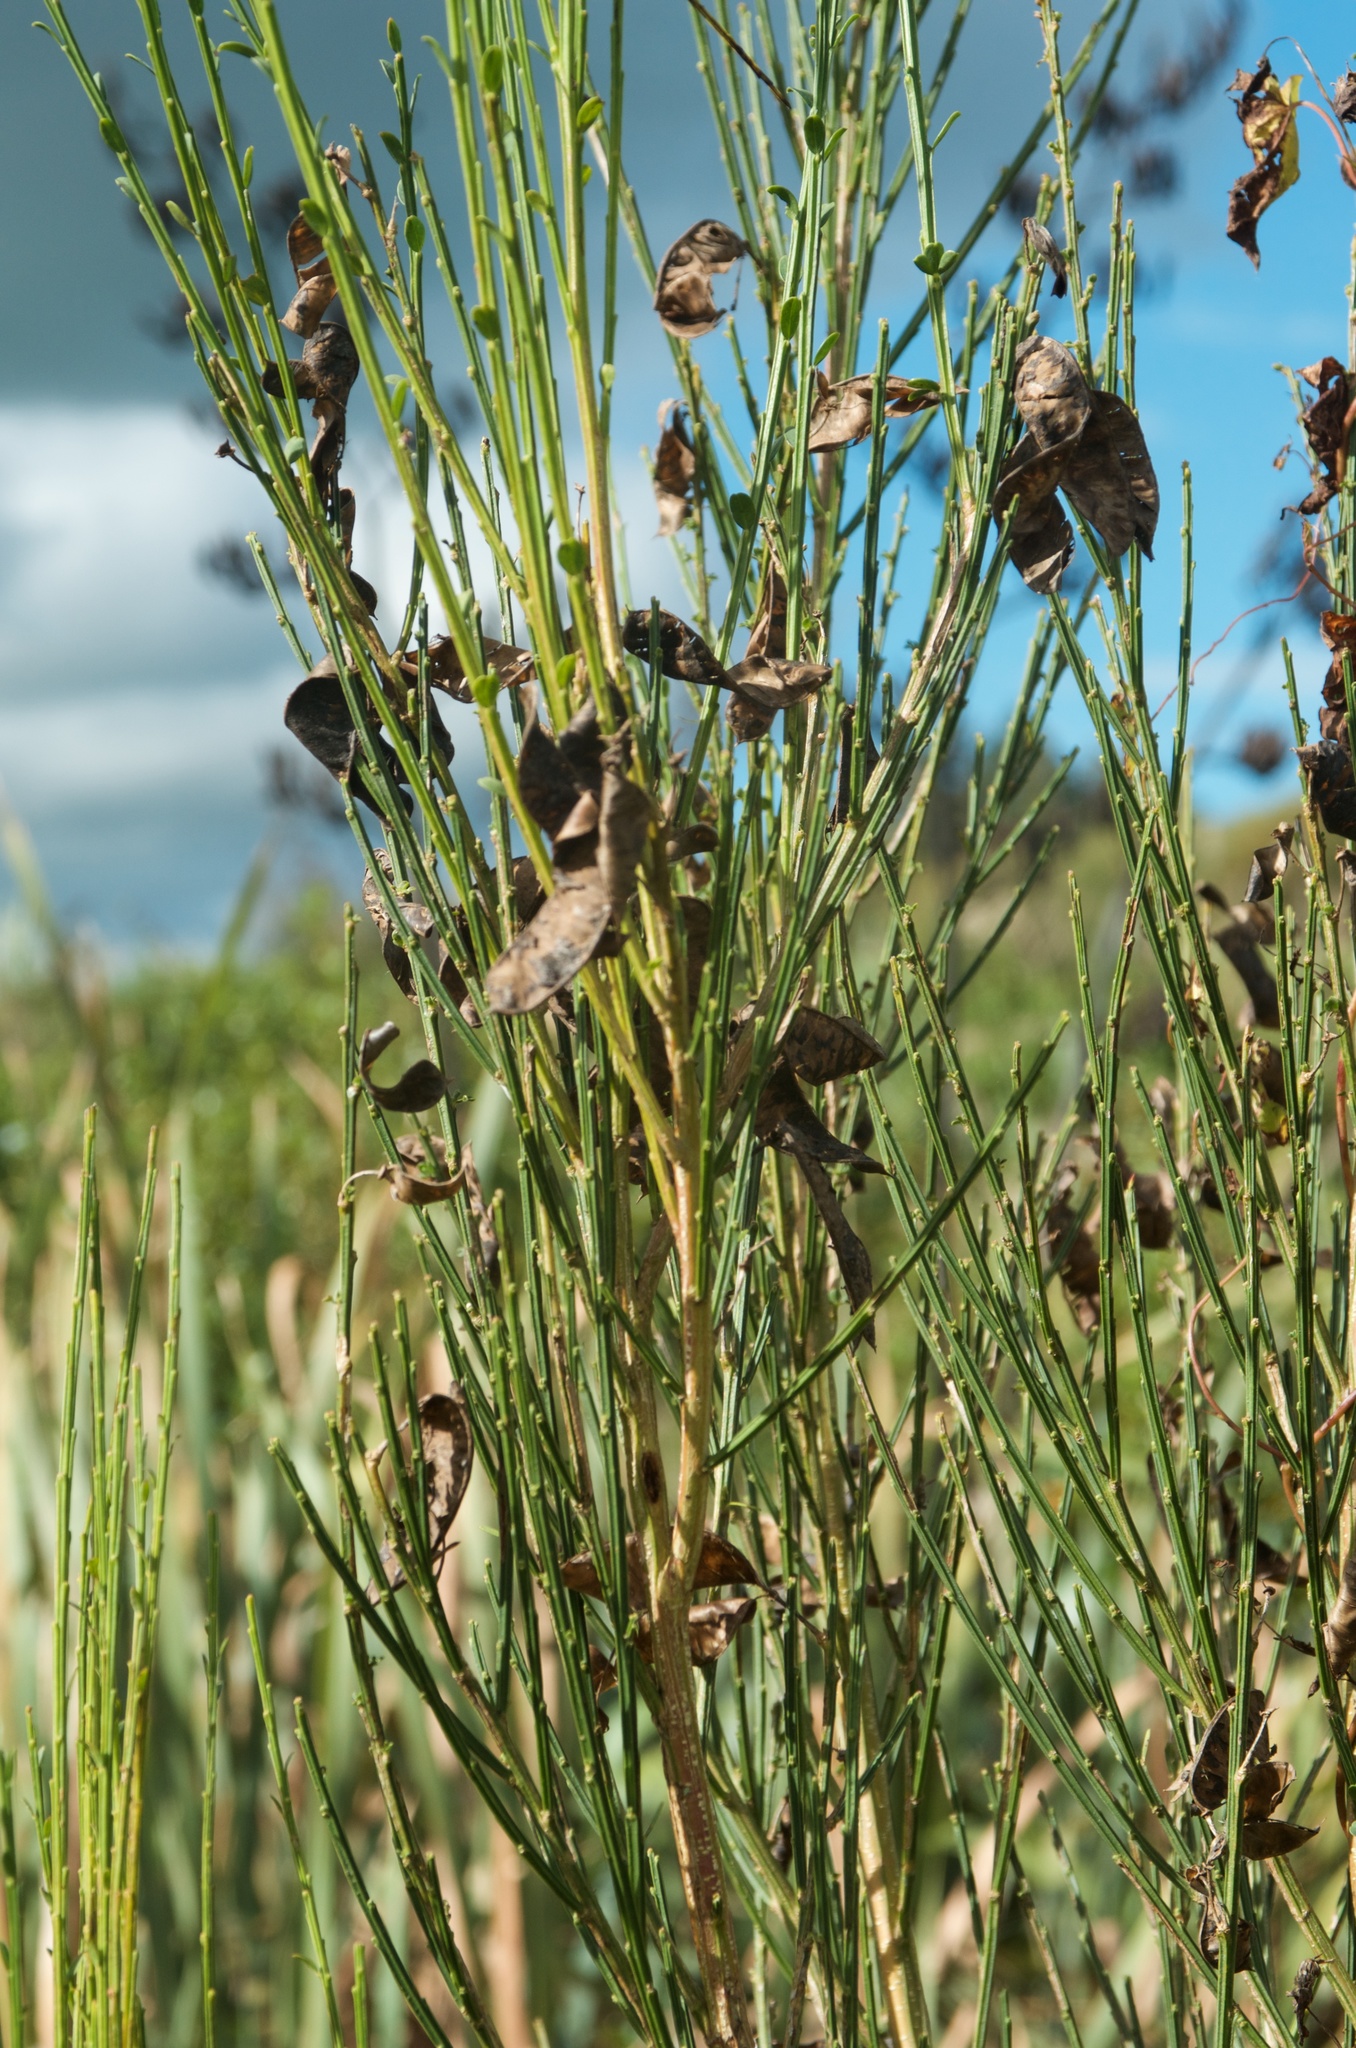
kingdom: Plantae
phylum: Tracheophyta
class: Magnoliopsida
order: Fabales
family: Fabaceae
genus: Cytisus
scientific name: Cytisus scoparius
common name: Scotch broom
